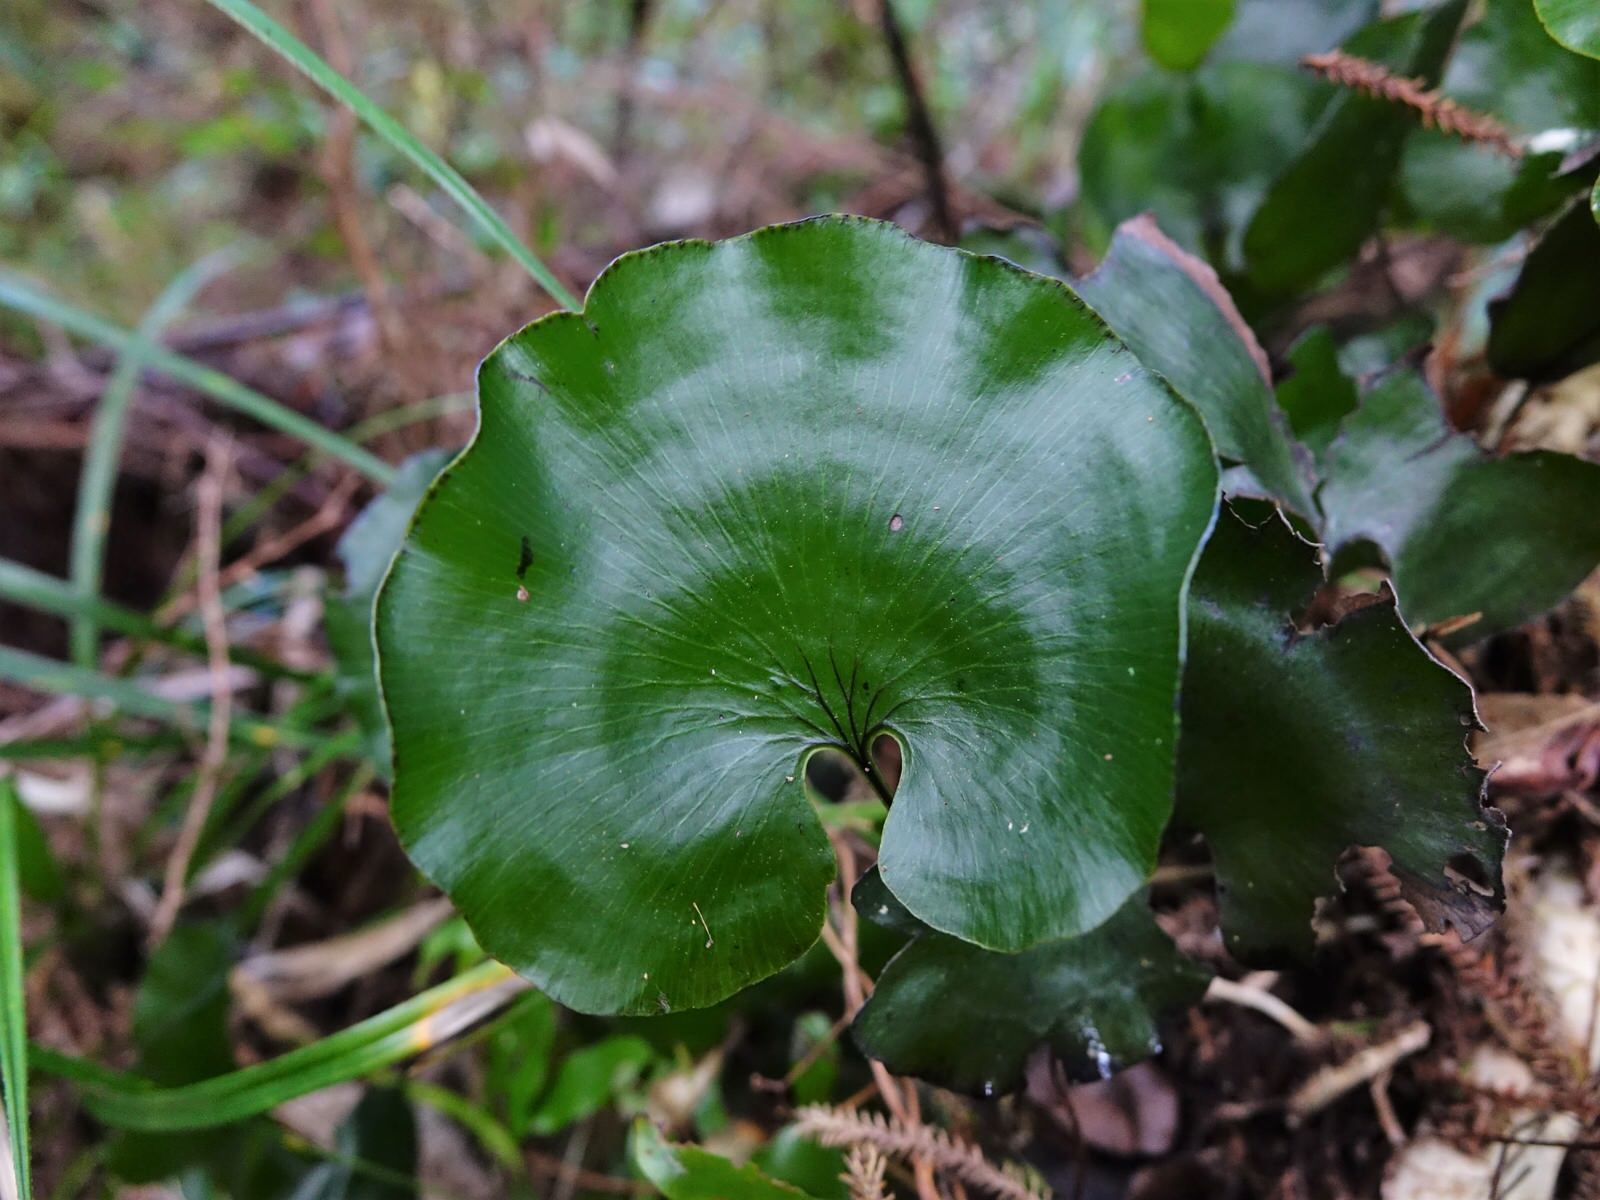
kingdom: Plantae
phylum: Tracheophyta
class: Polypodiopsida
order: Hymenophyllales
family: Hymenophyllaceae
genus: Hymenophyllum
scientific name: Hymenophyllum nephrophyllum
